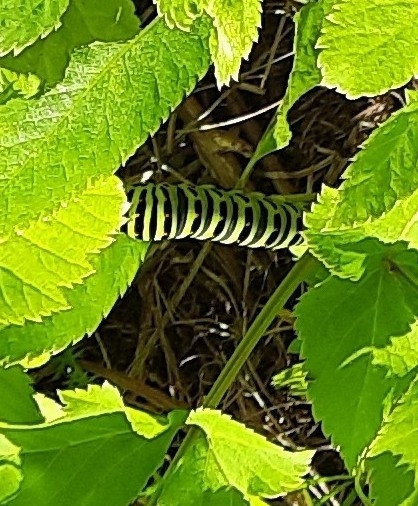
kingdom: Animalia
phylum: Arthropoda
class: Insecta
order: Lepidoptera
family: Papilionidae
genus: Papilio
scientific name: Papilio machaon
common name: Swallowtail
